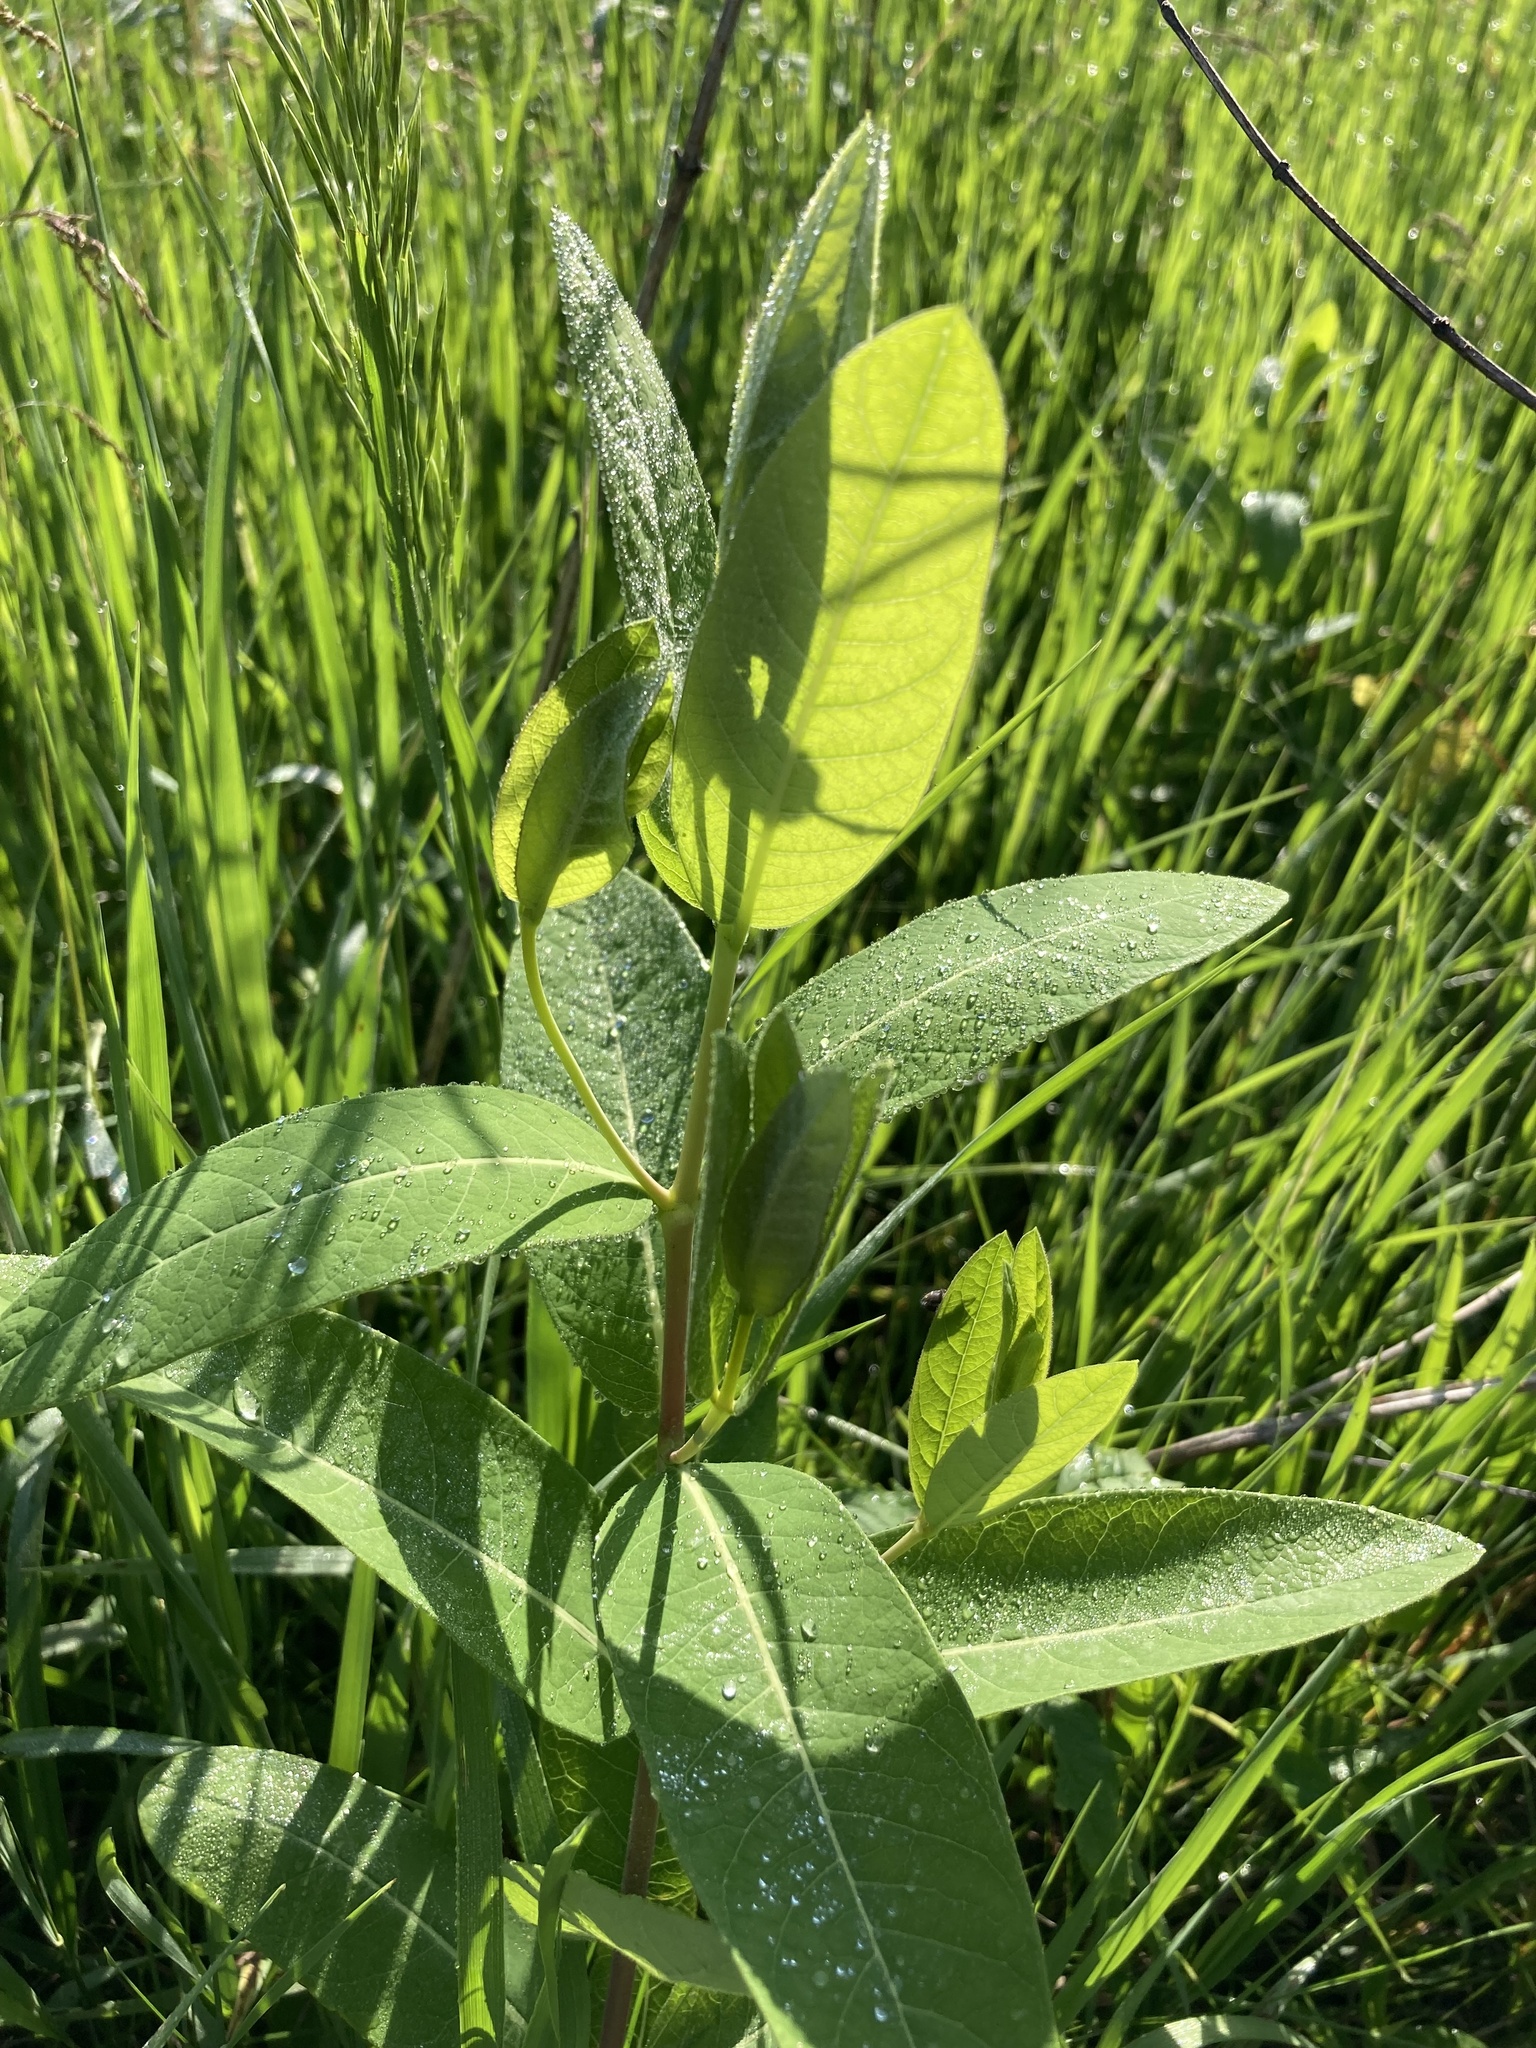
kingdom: Plantae
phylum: Tracheophyta
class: Magnoliopsida
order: Gentianales
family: Apocynaceae
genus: Apocynum
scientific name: Apocynum cannabinum
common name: Hemp dogbane
